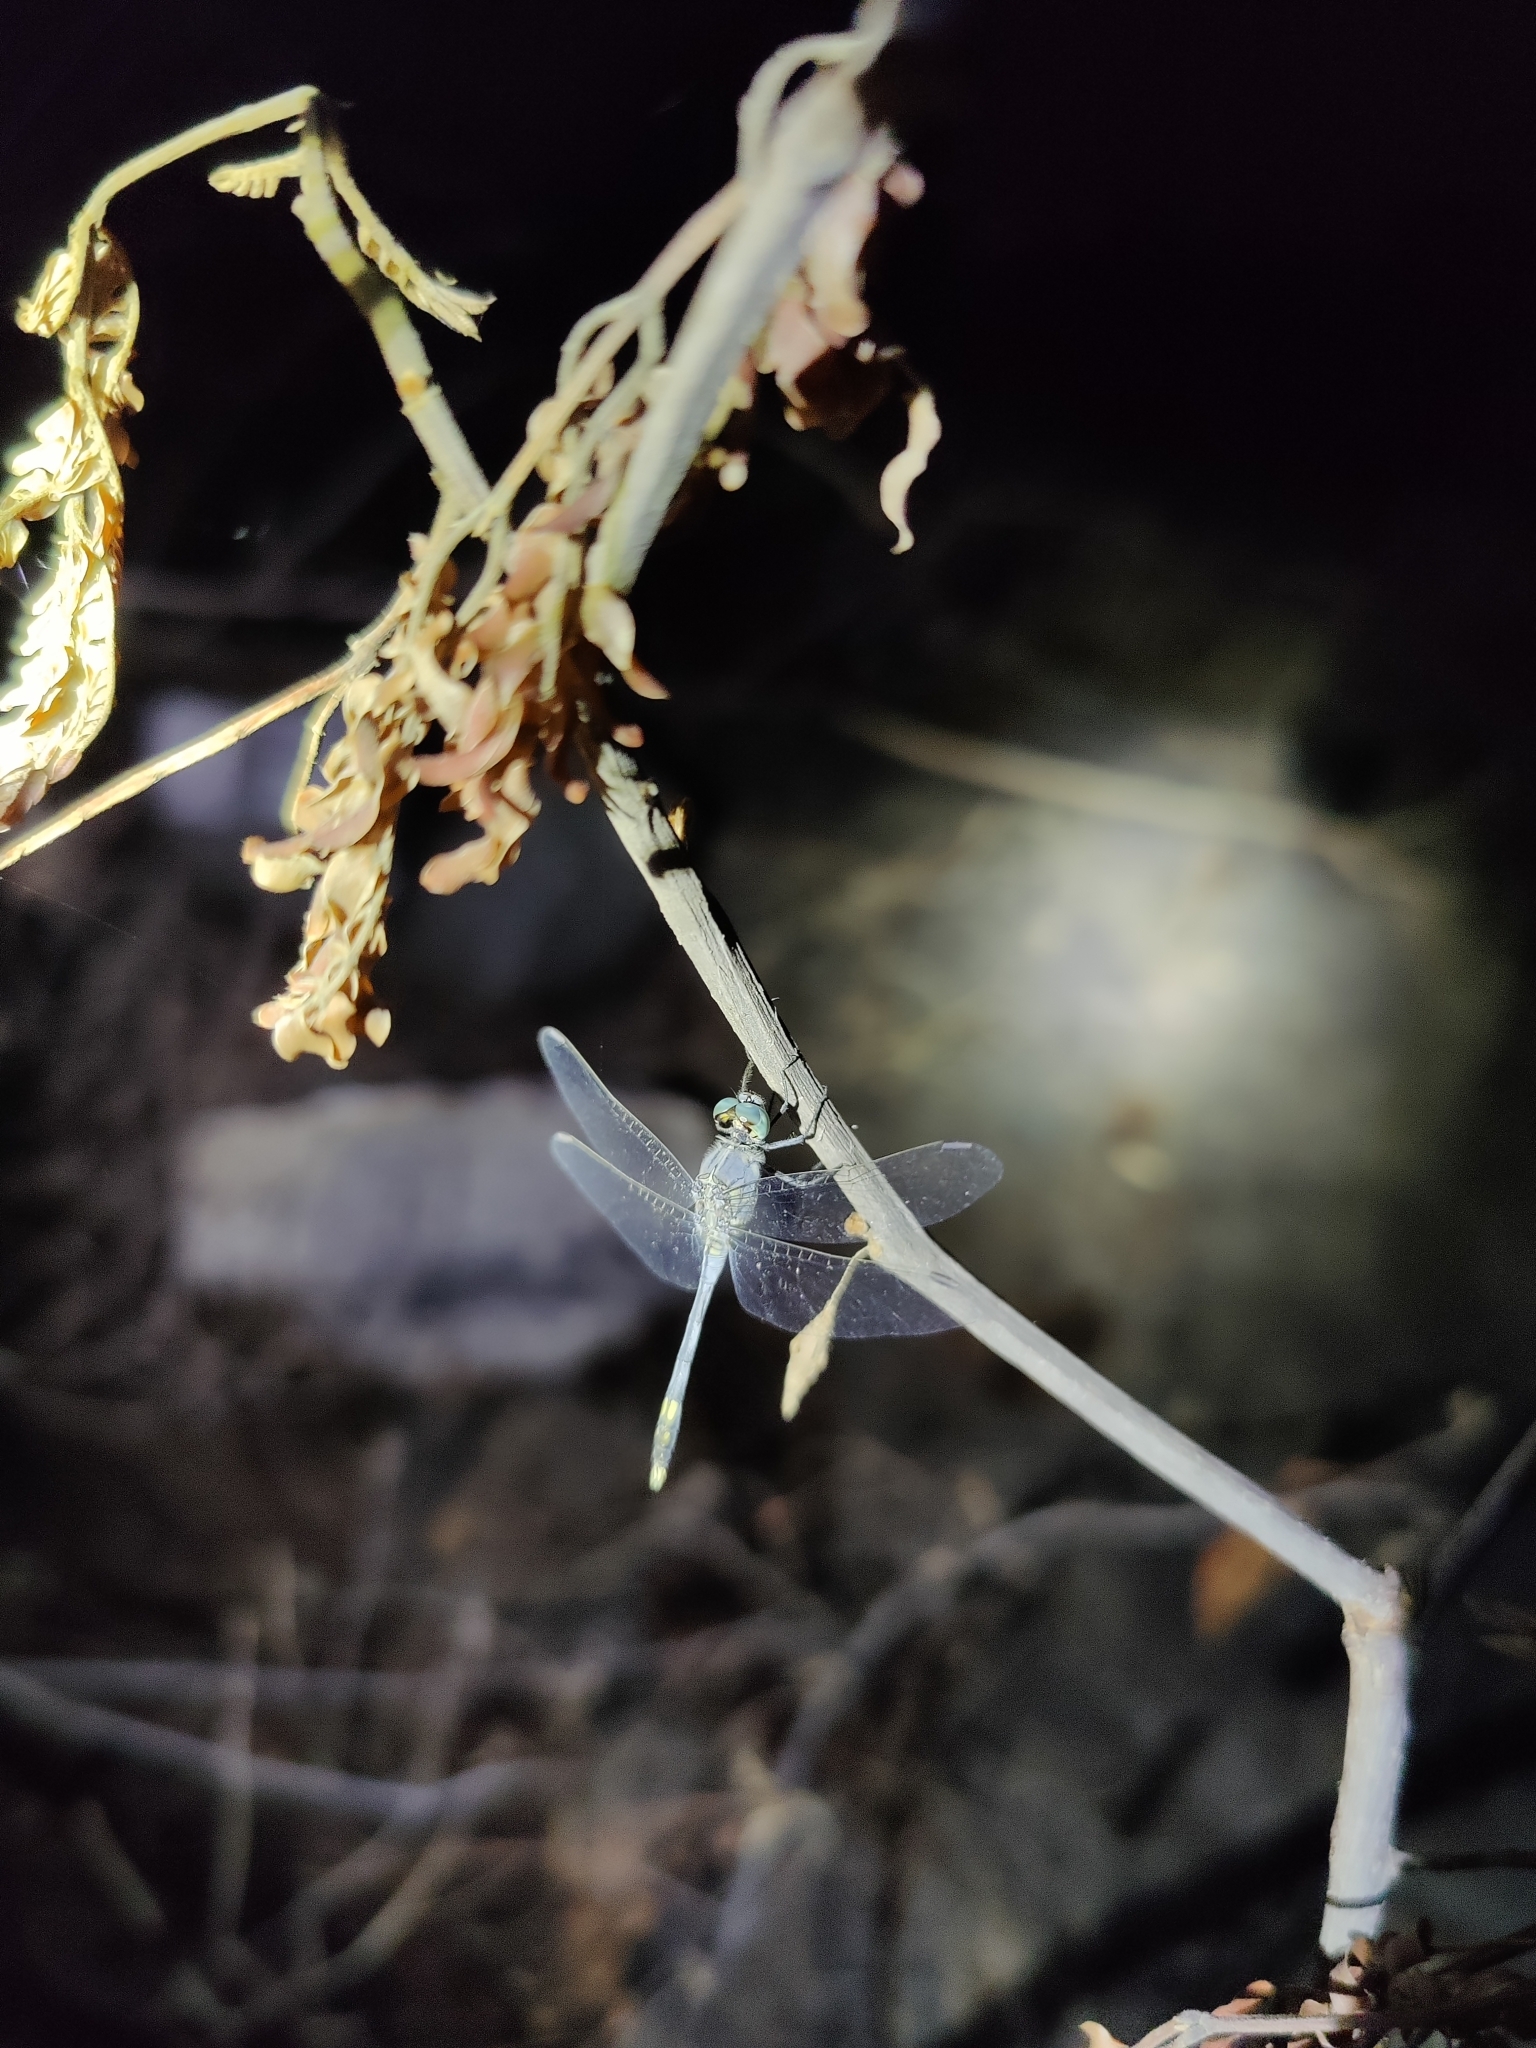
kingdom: Animalia
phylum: Arthropoda
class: Insecta
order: Odonata
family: Libellulidae
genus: Diplacodes
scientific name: Diplacodes trivialis
